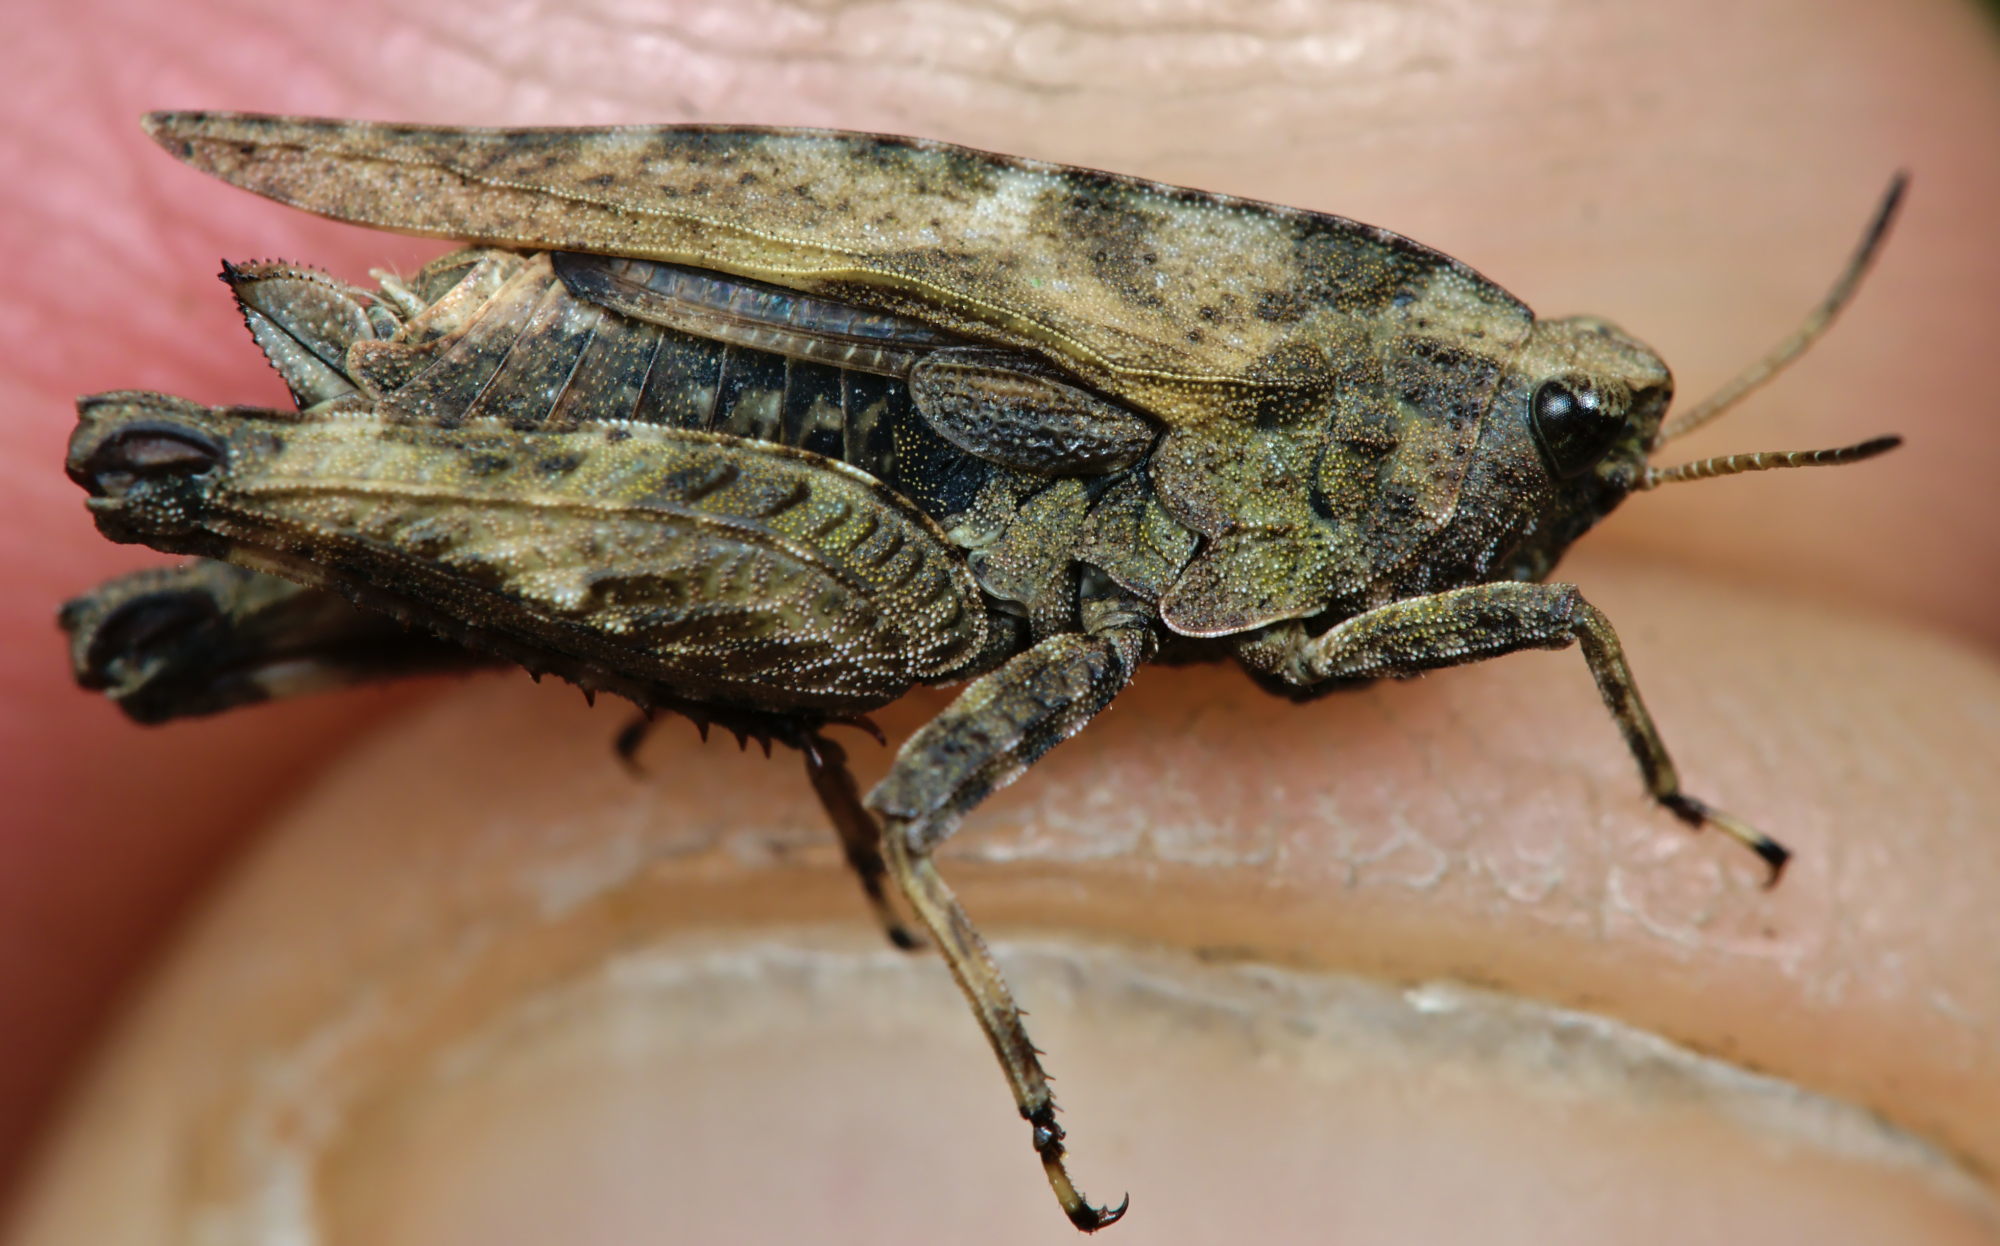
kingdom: Animalia
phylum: Arthropoda
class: Insecta
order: Orthoptera
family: Tetrigidae
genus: Tetrix
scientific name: Tetrix undulata
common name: Common groundhopper
